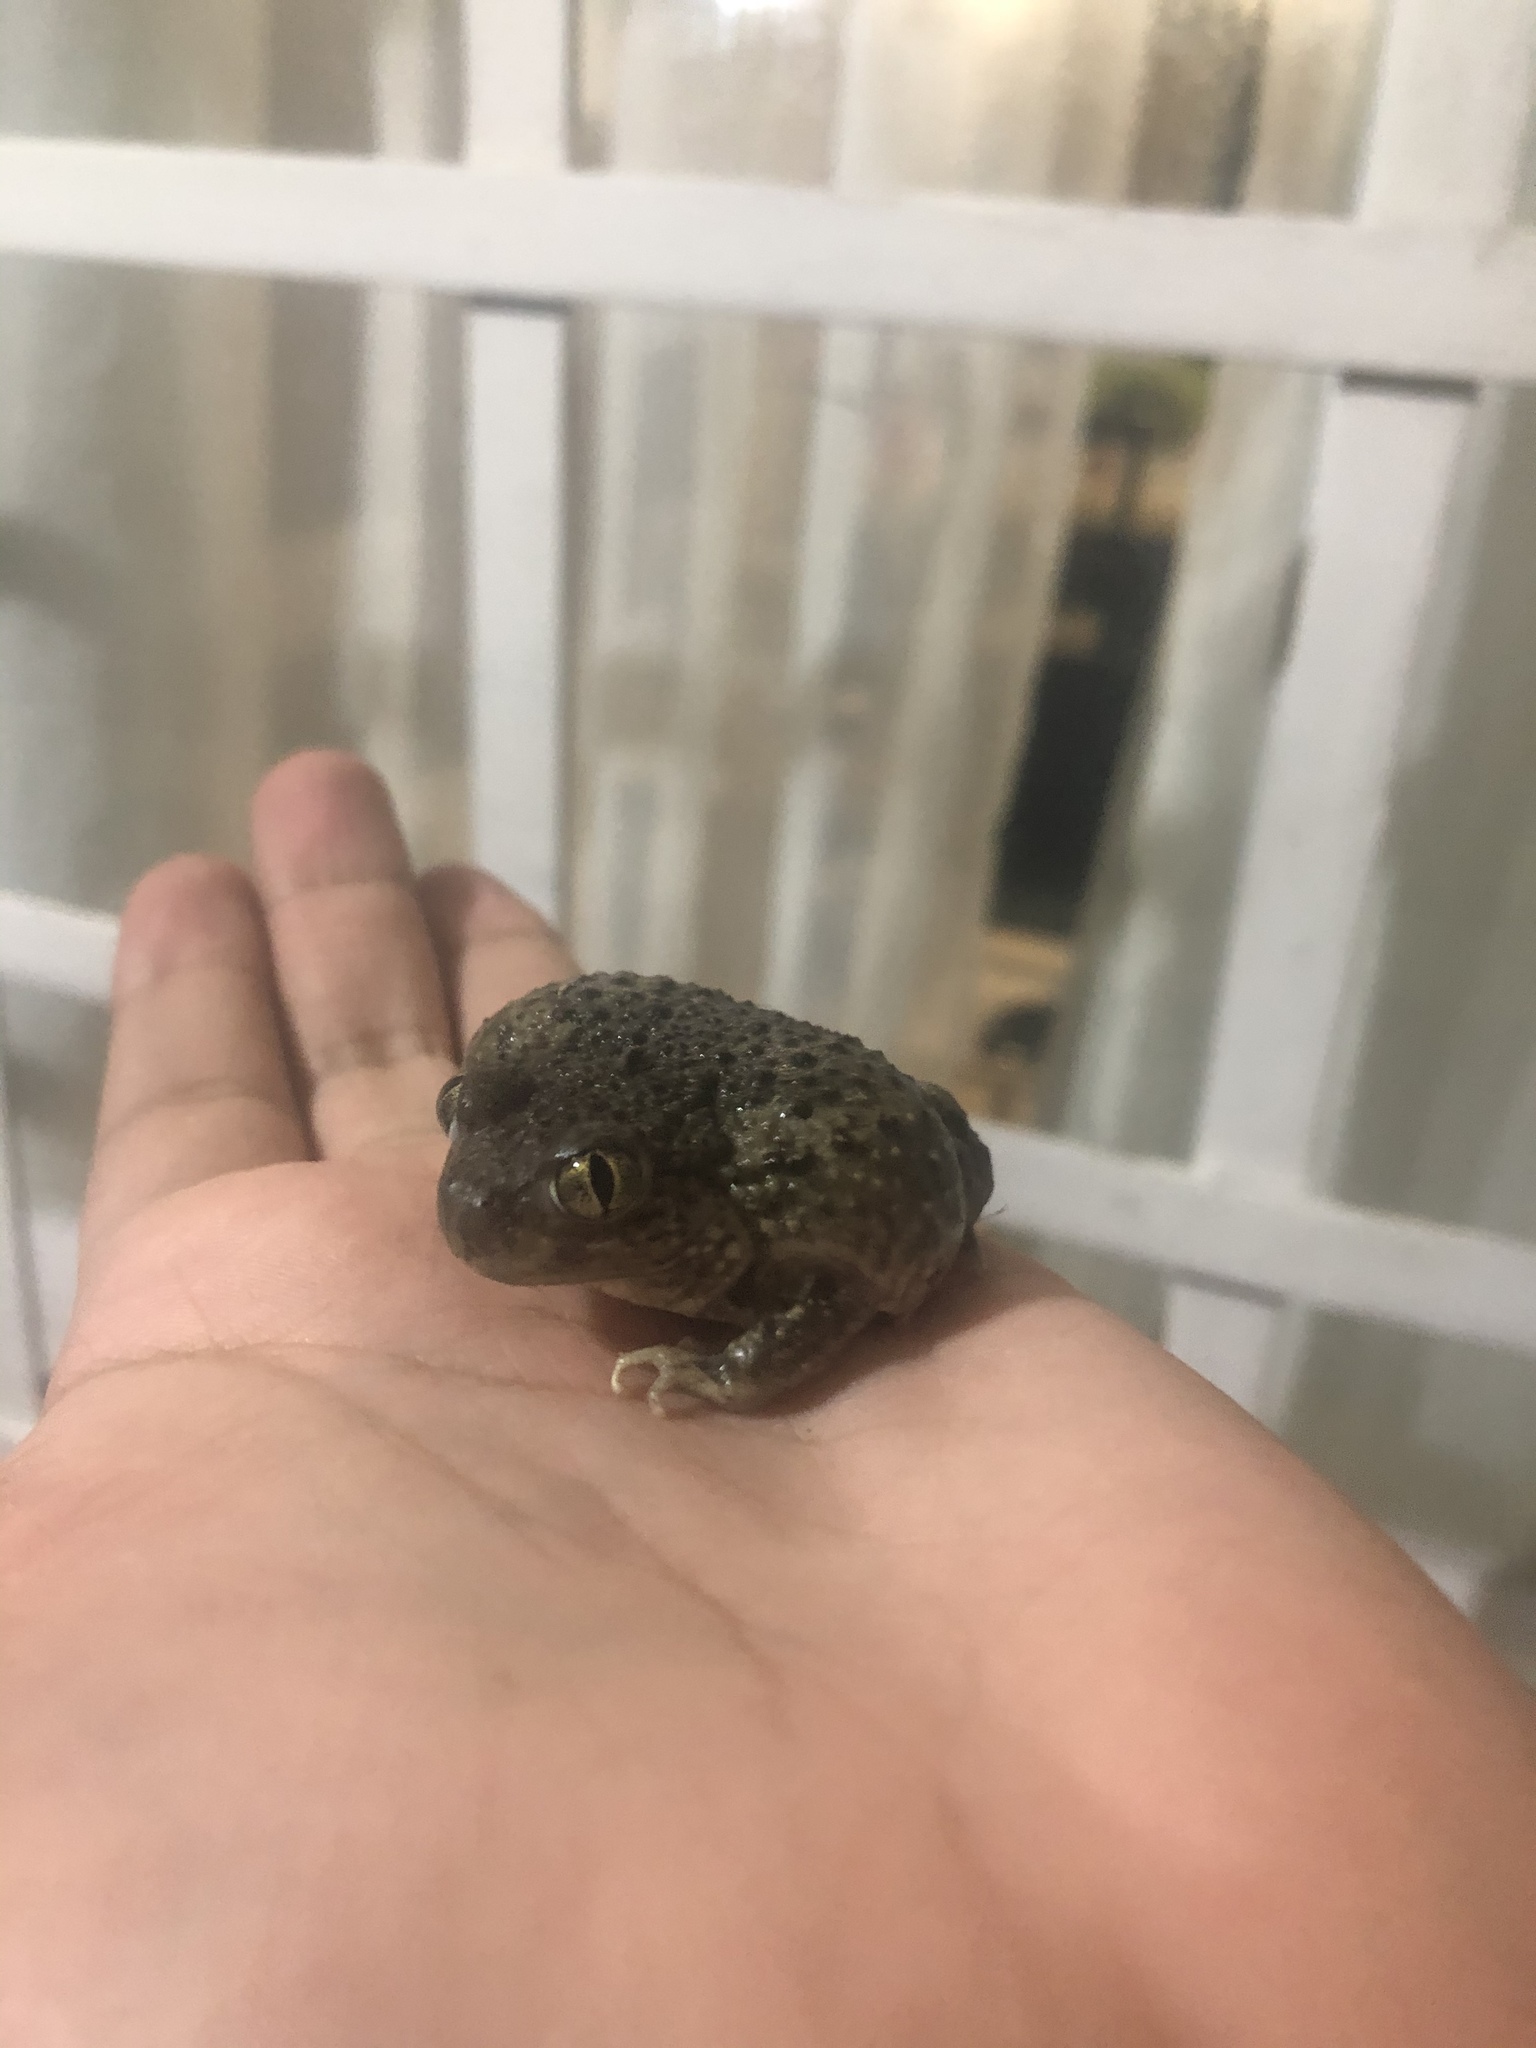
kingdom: Animalia
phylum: Chordata
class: Amphibia
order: Anura
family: Scaphiopodidae
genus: Spea
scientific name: Spea multiplicata
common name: Mexican spadefoot
